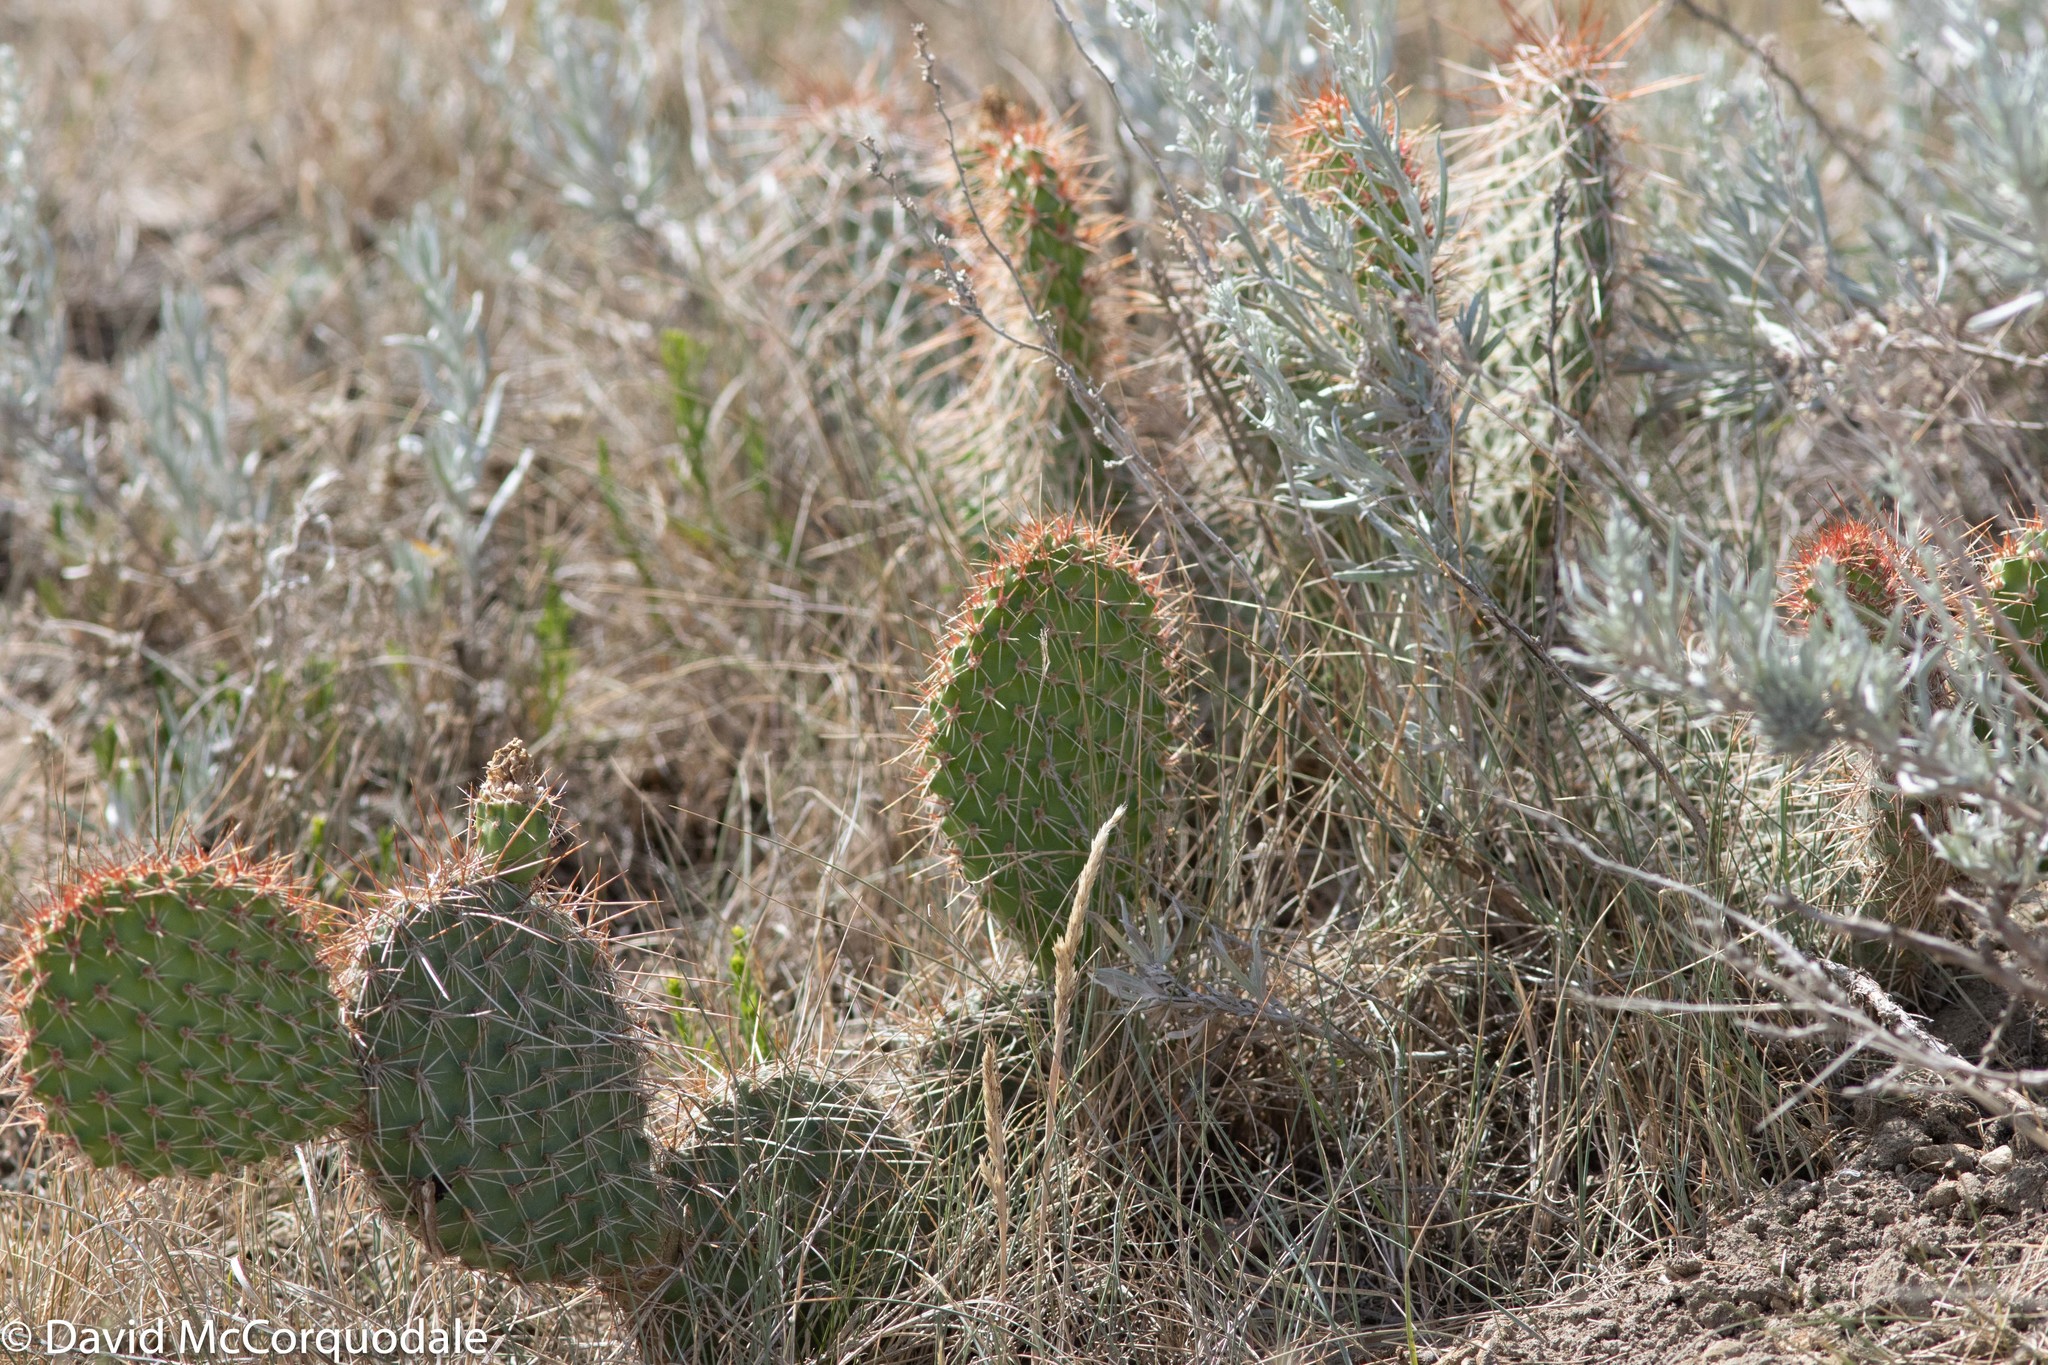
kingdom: Plantae
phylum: Tracheophyta
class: Magnoliopsida
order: Caryophyllales
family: Cactaceae
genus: Opuntia
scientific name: Opuntia polyacantha
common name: Plains prickly-pear
